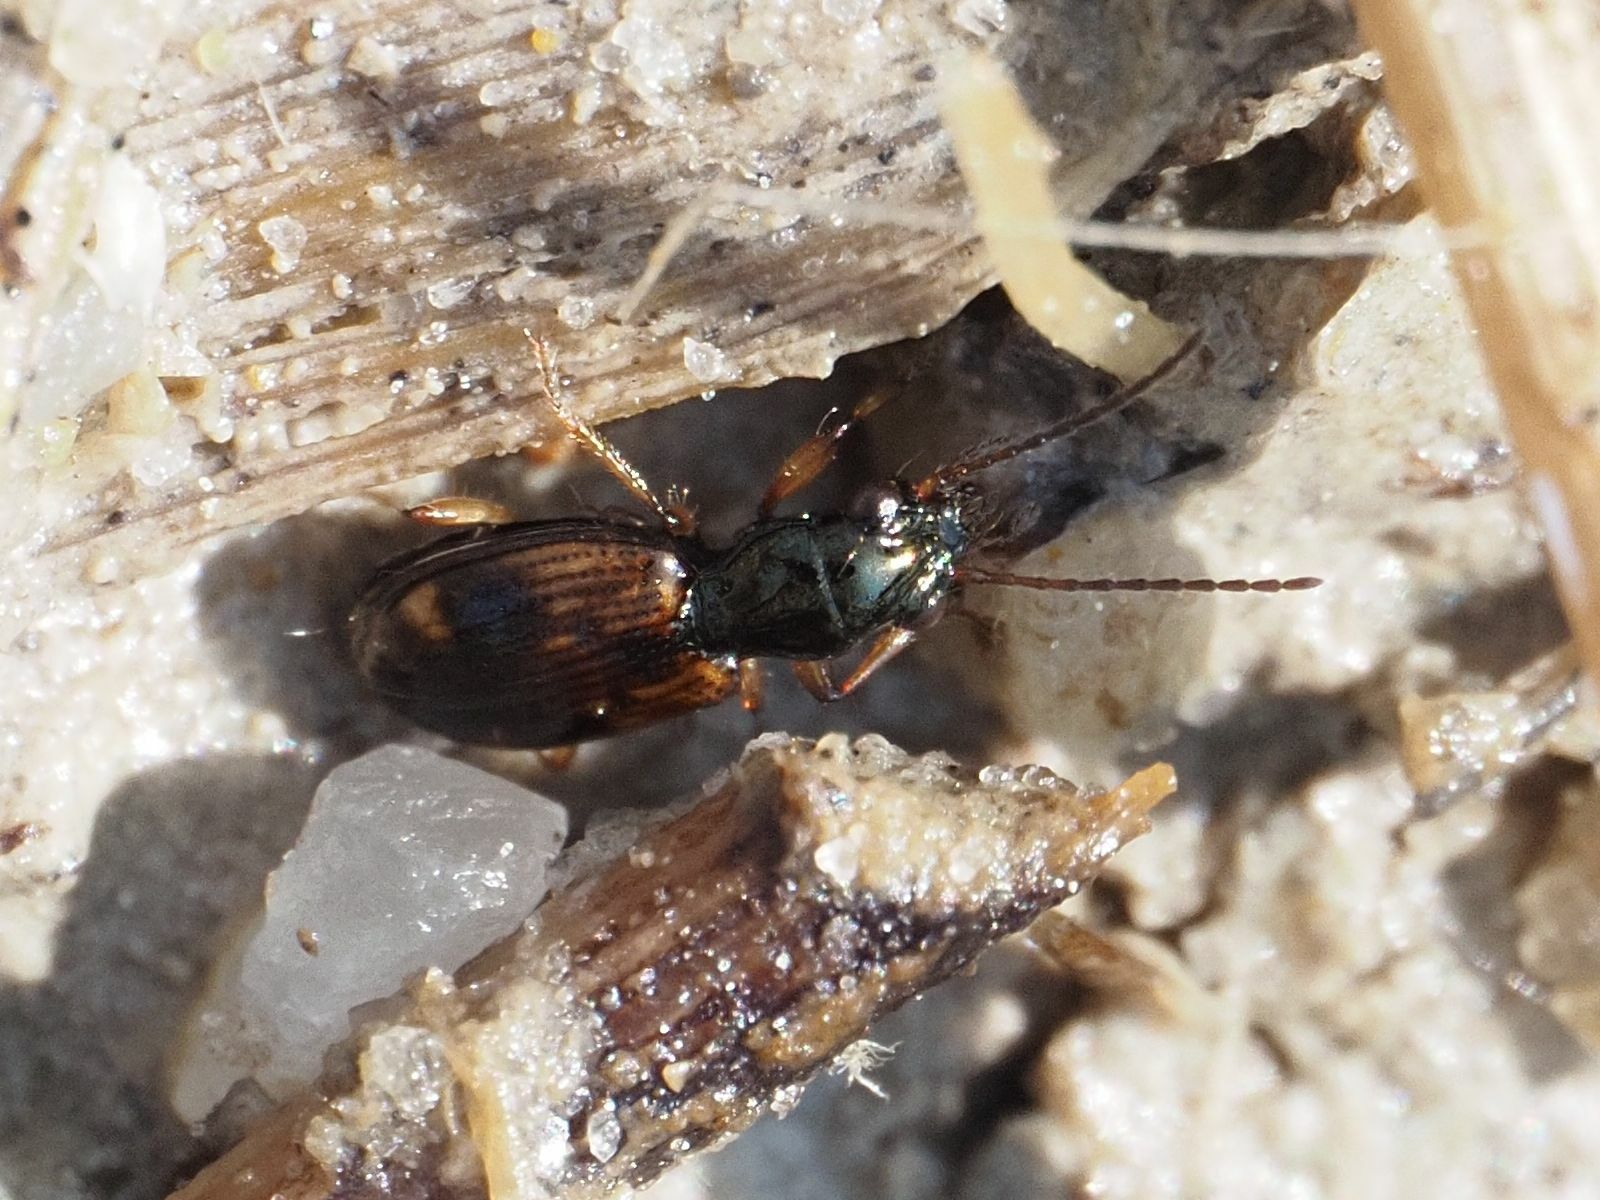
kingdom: Animalia
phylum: Arthropoda
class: Insecta
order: Coleoptera
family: Carabidae
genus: Bembidion
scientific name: Bembidion articulatum
